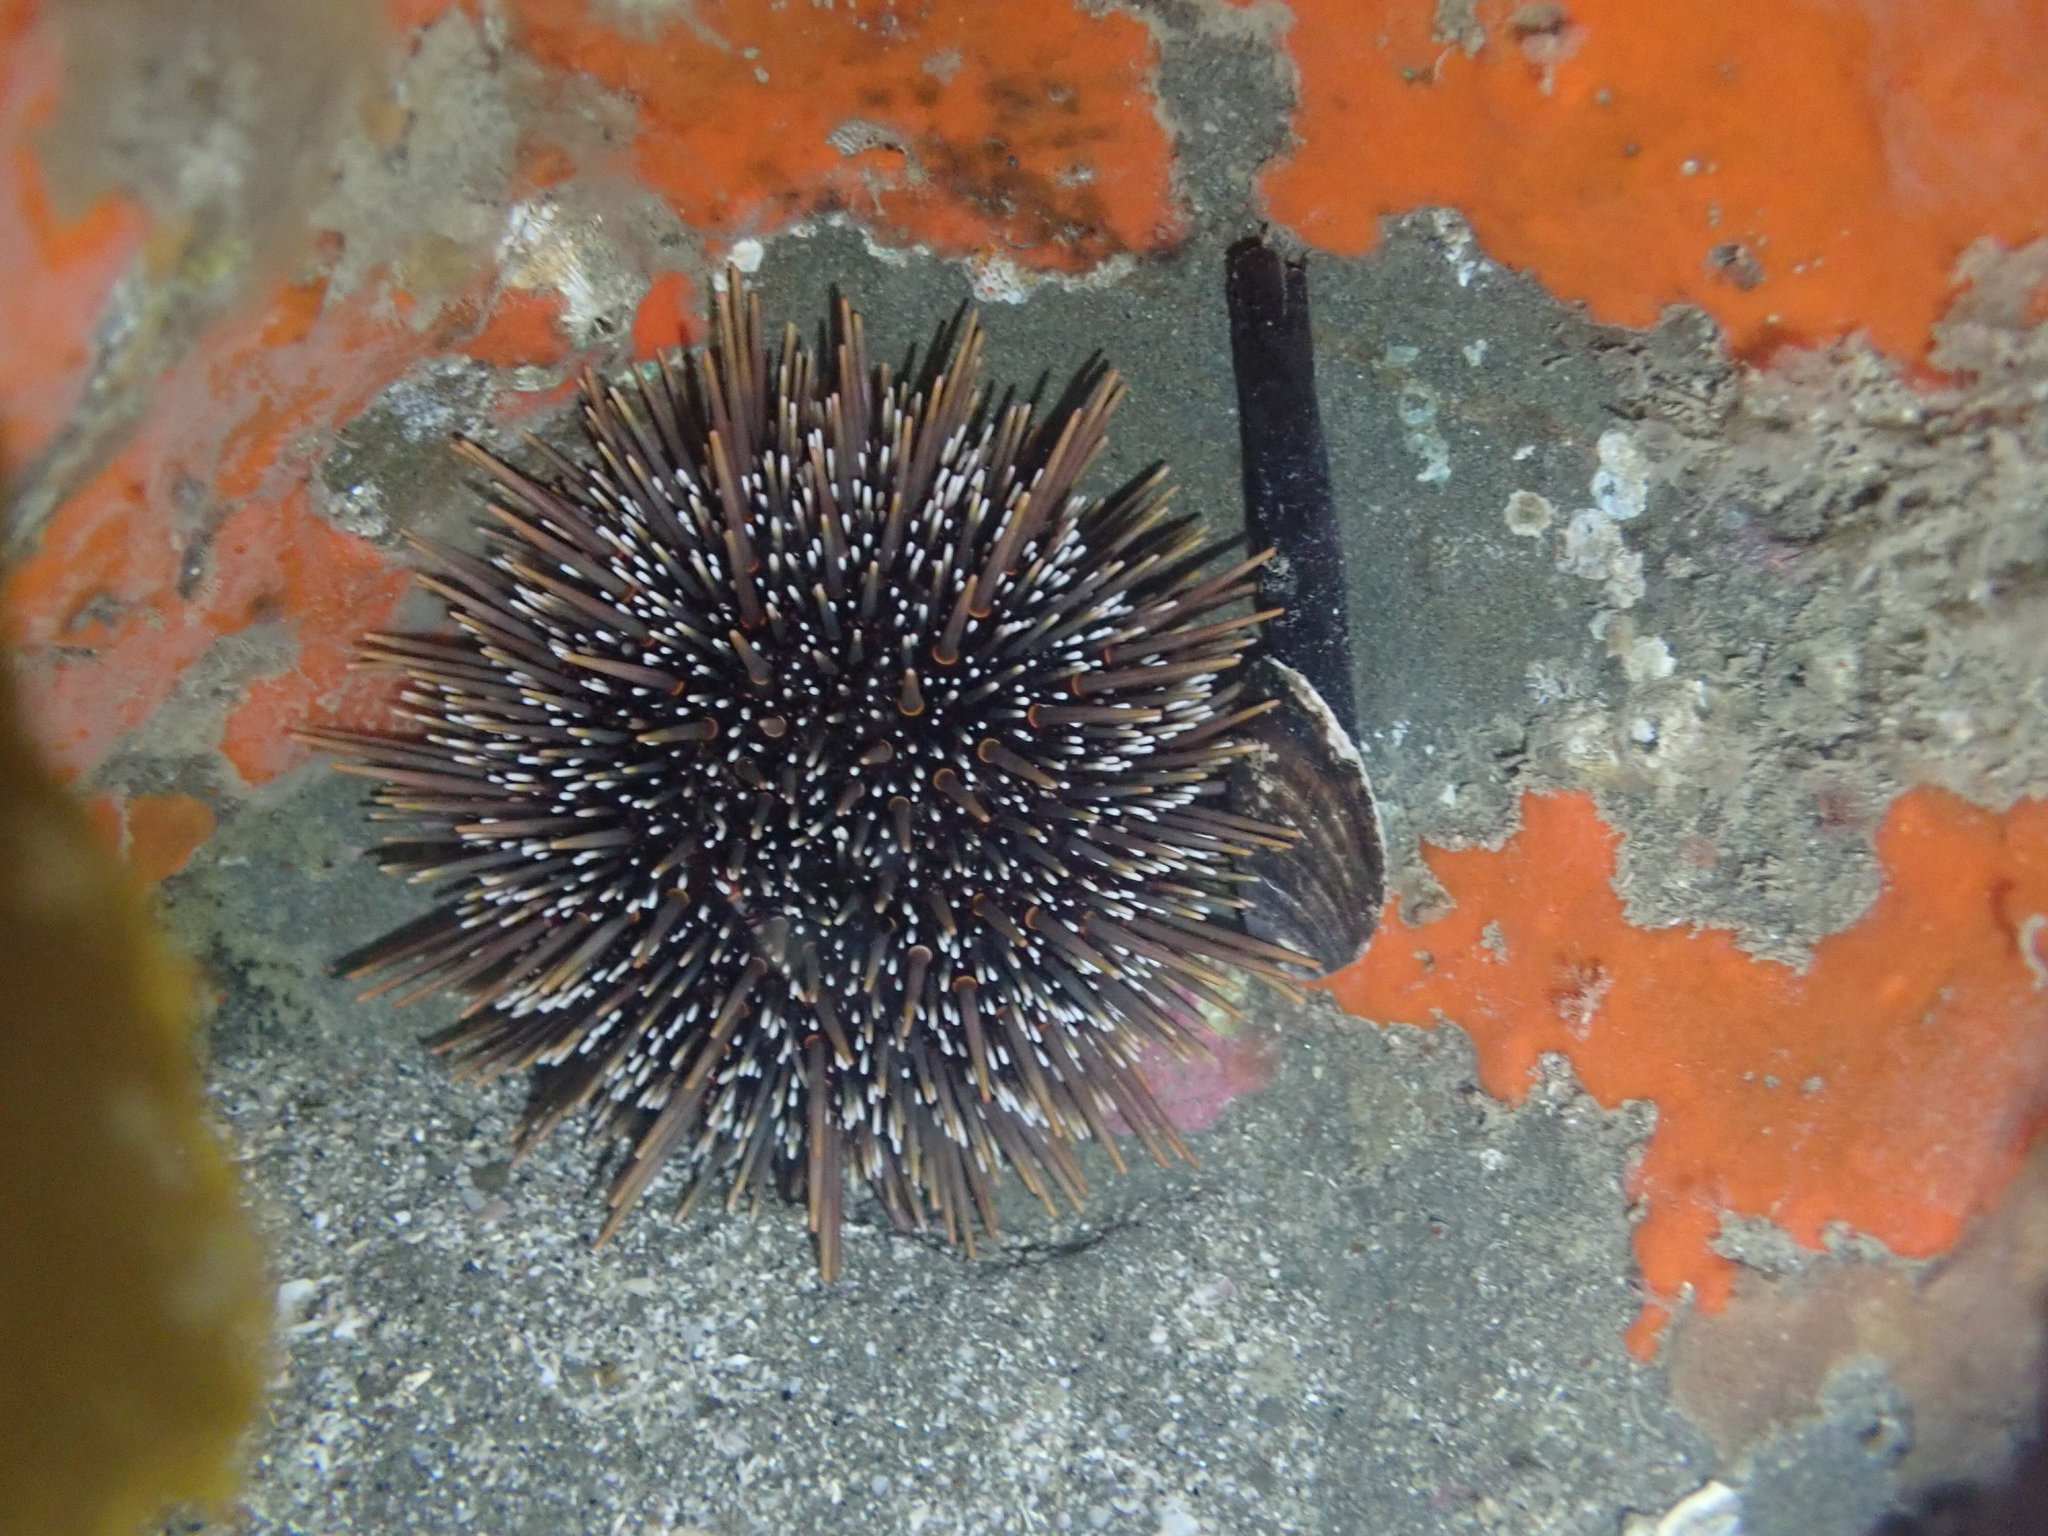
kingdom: Animalia
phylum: Echinodermata
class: Echinoidea
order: Camarodonta
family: Echinometridae
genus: Evechinus
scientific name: Evechinus chloroticus
